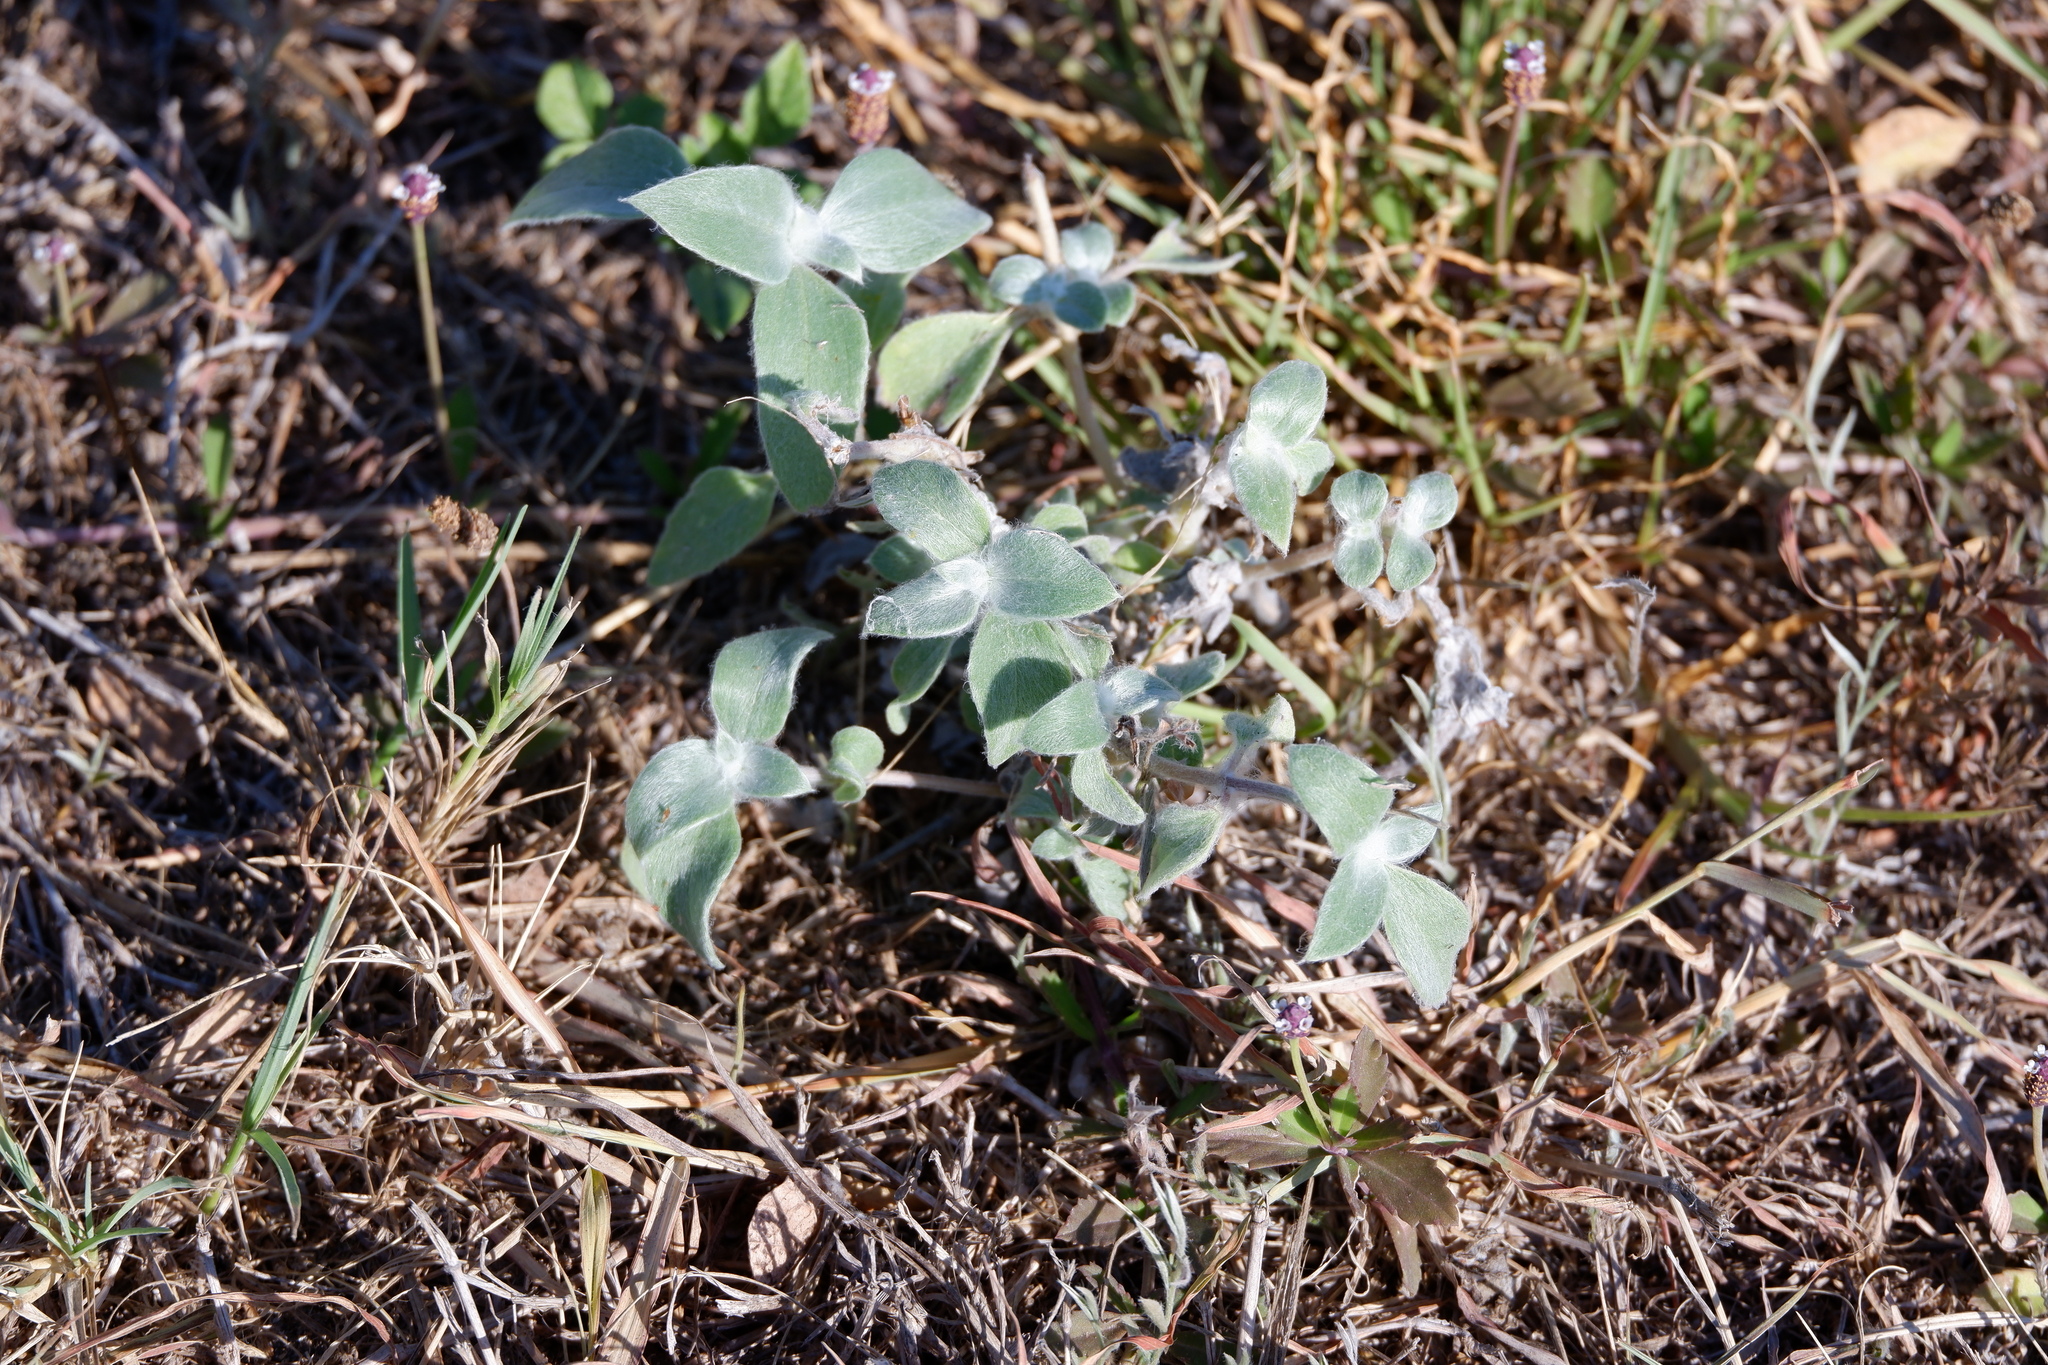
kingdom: Plantae
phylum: Tracheophyta
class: Magnoliopsida
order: Asterales
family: Asteraceae
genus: Helianthus
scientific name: Helianthus argophyllus
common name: Silverleaf sunflower
